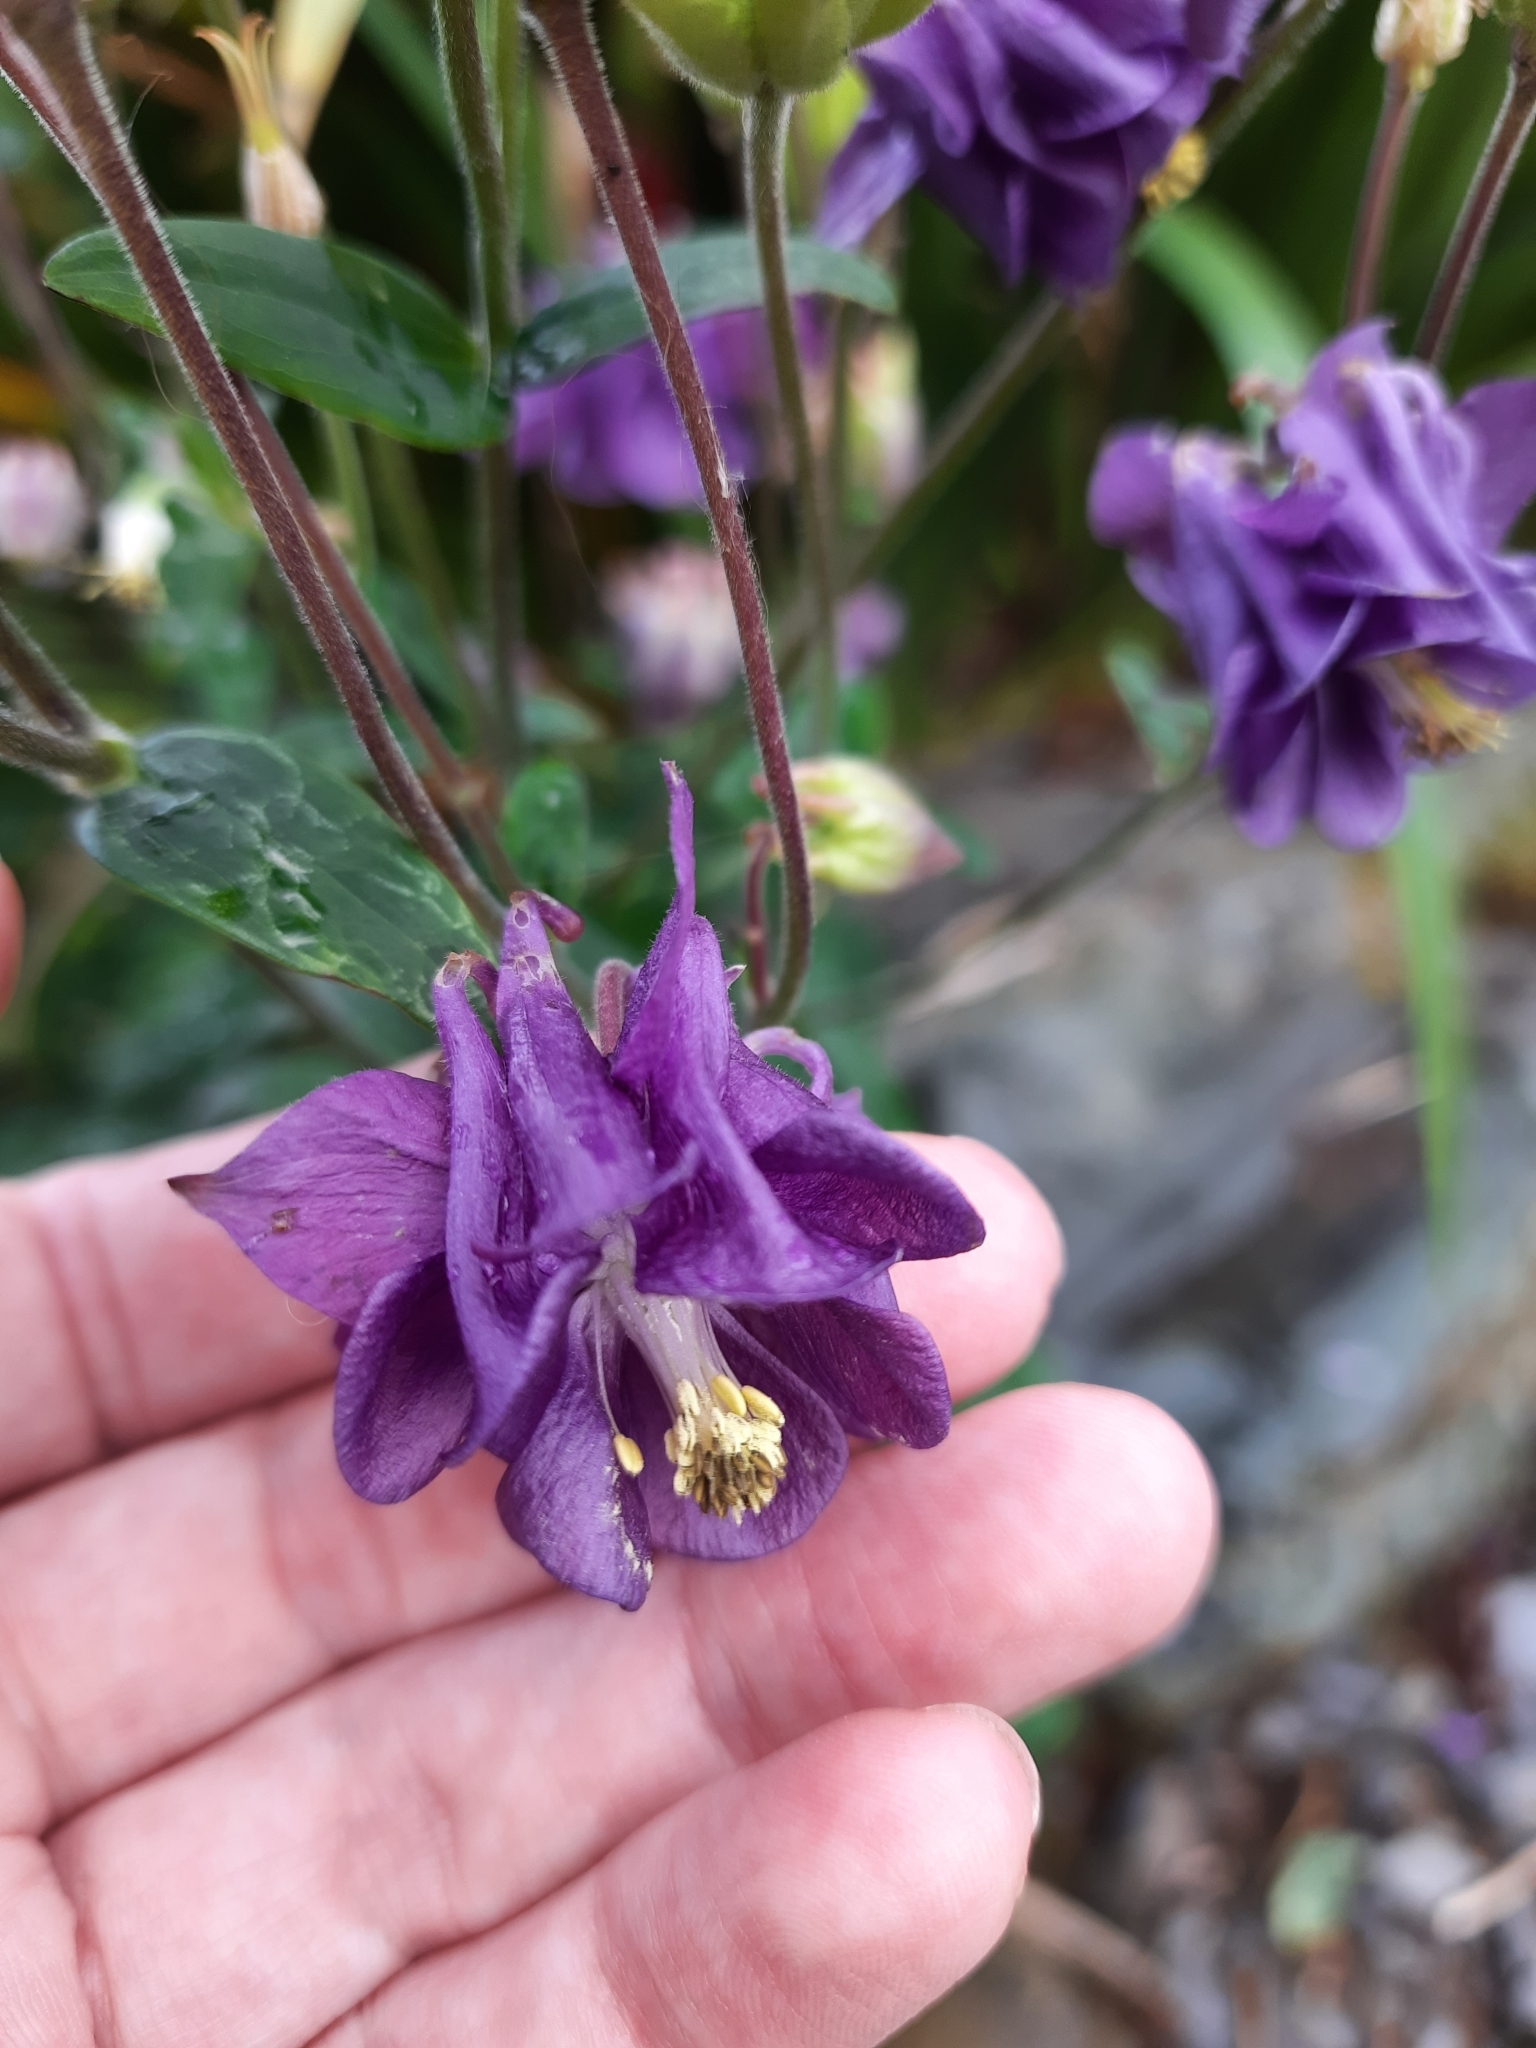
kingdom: Plantae
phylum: Tracheophyta
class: Magnoliopsida
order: Ranunculales
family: Ranunculaceae
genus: Aquilegia
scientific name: Aquilegia vulgaris
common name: Columbine
